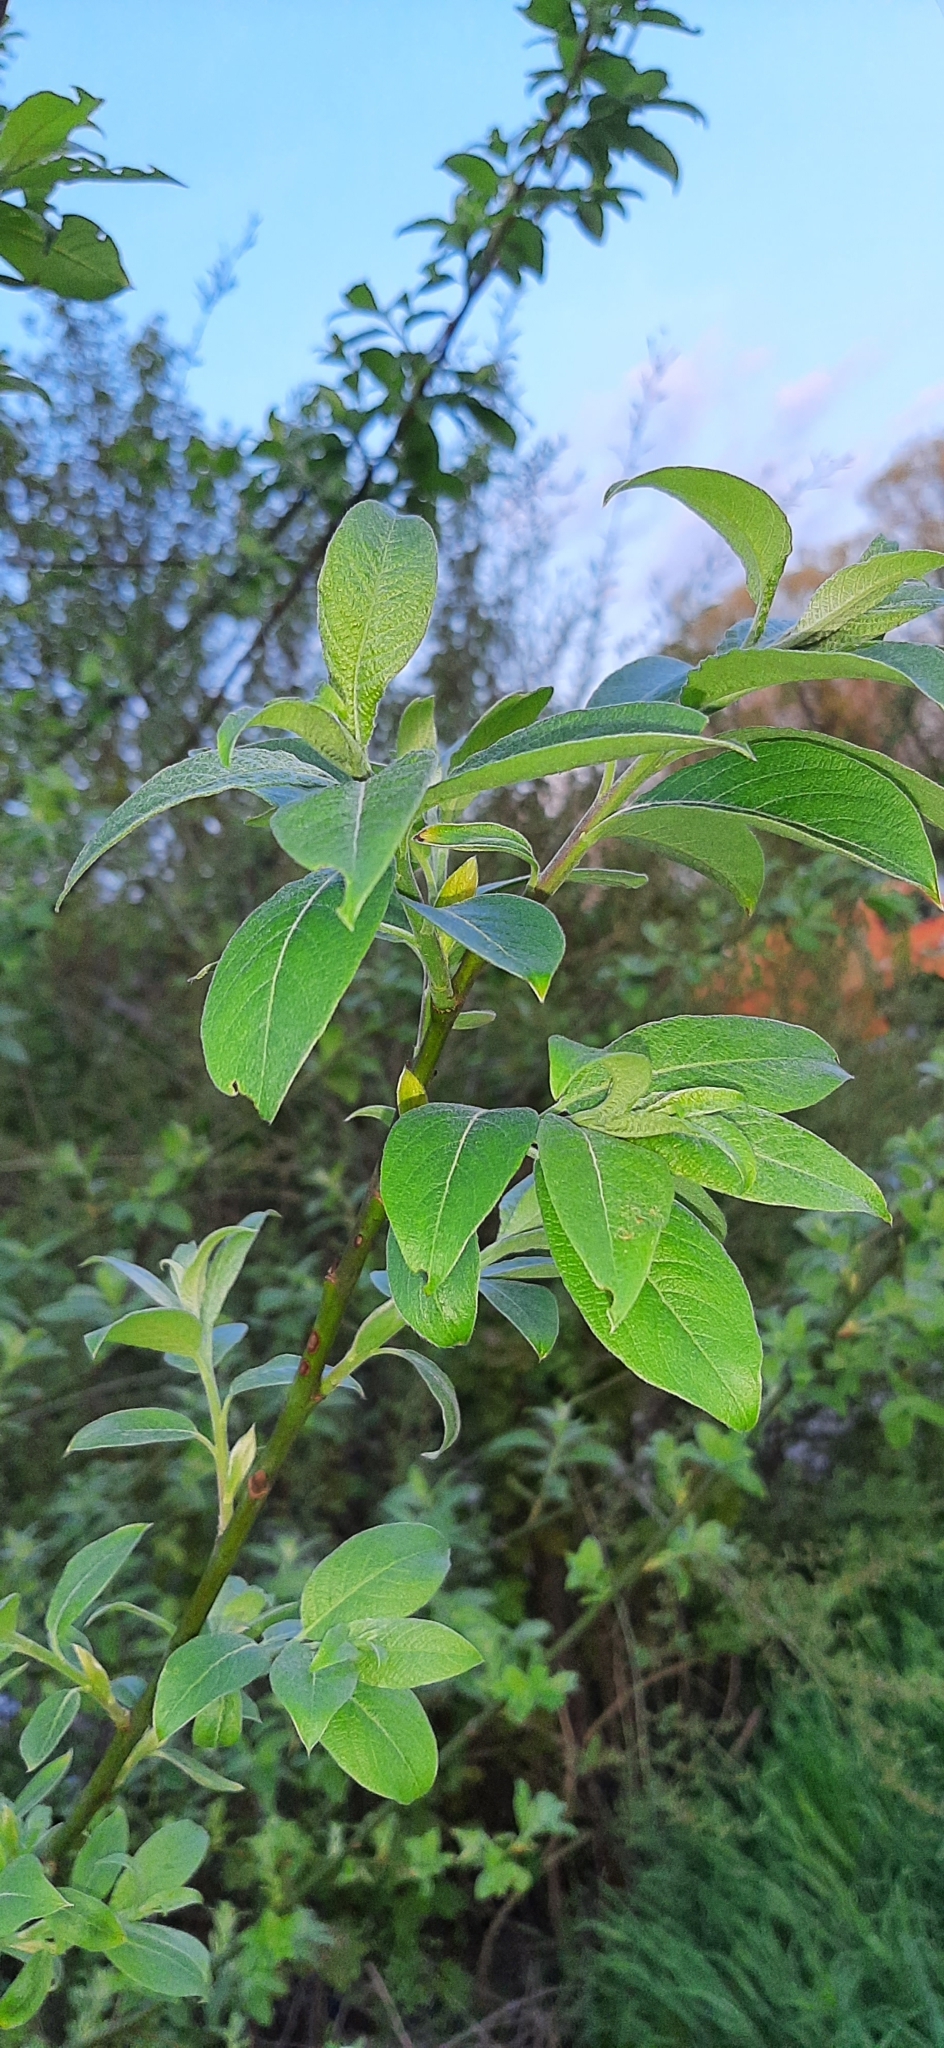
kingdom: Plantae
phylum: Tracheophyta
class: Magnoliopsida
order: Malpighiales
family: Salicaceae
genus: Salix
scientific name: Salix caprea
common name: Goat willow
